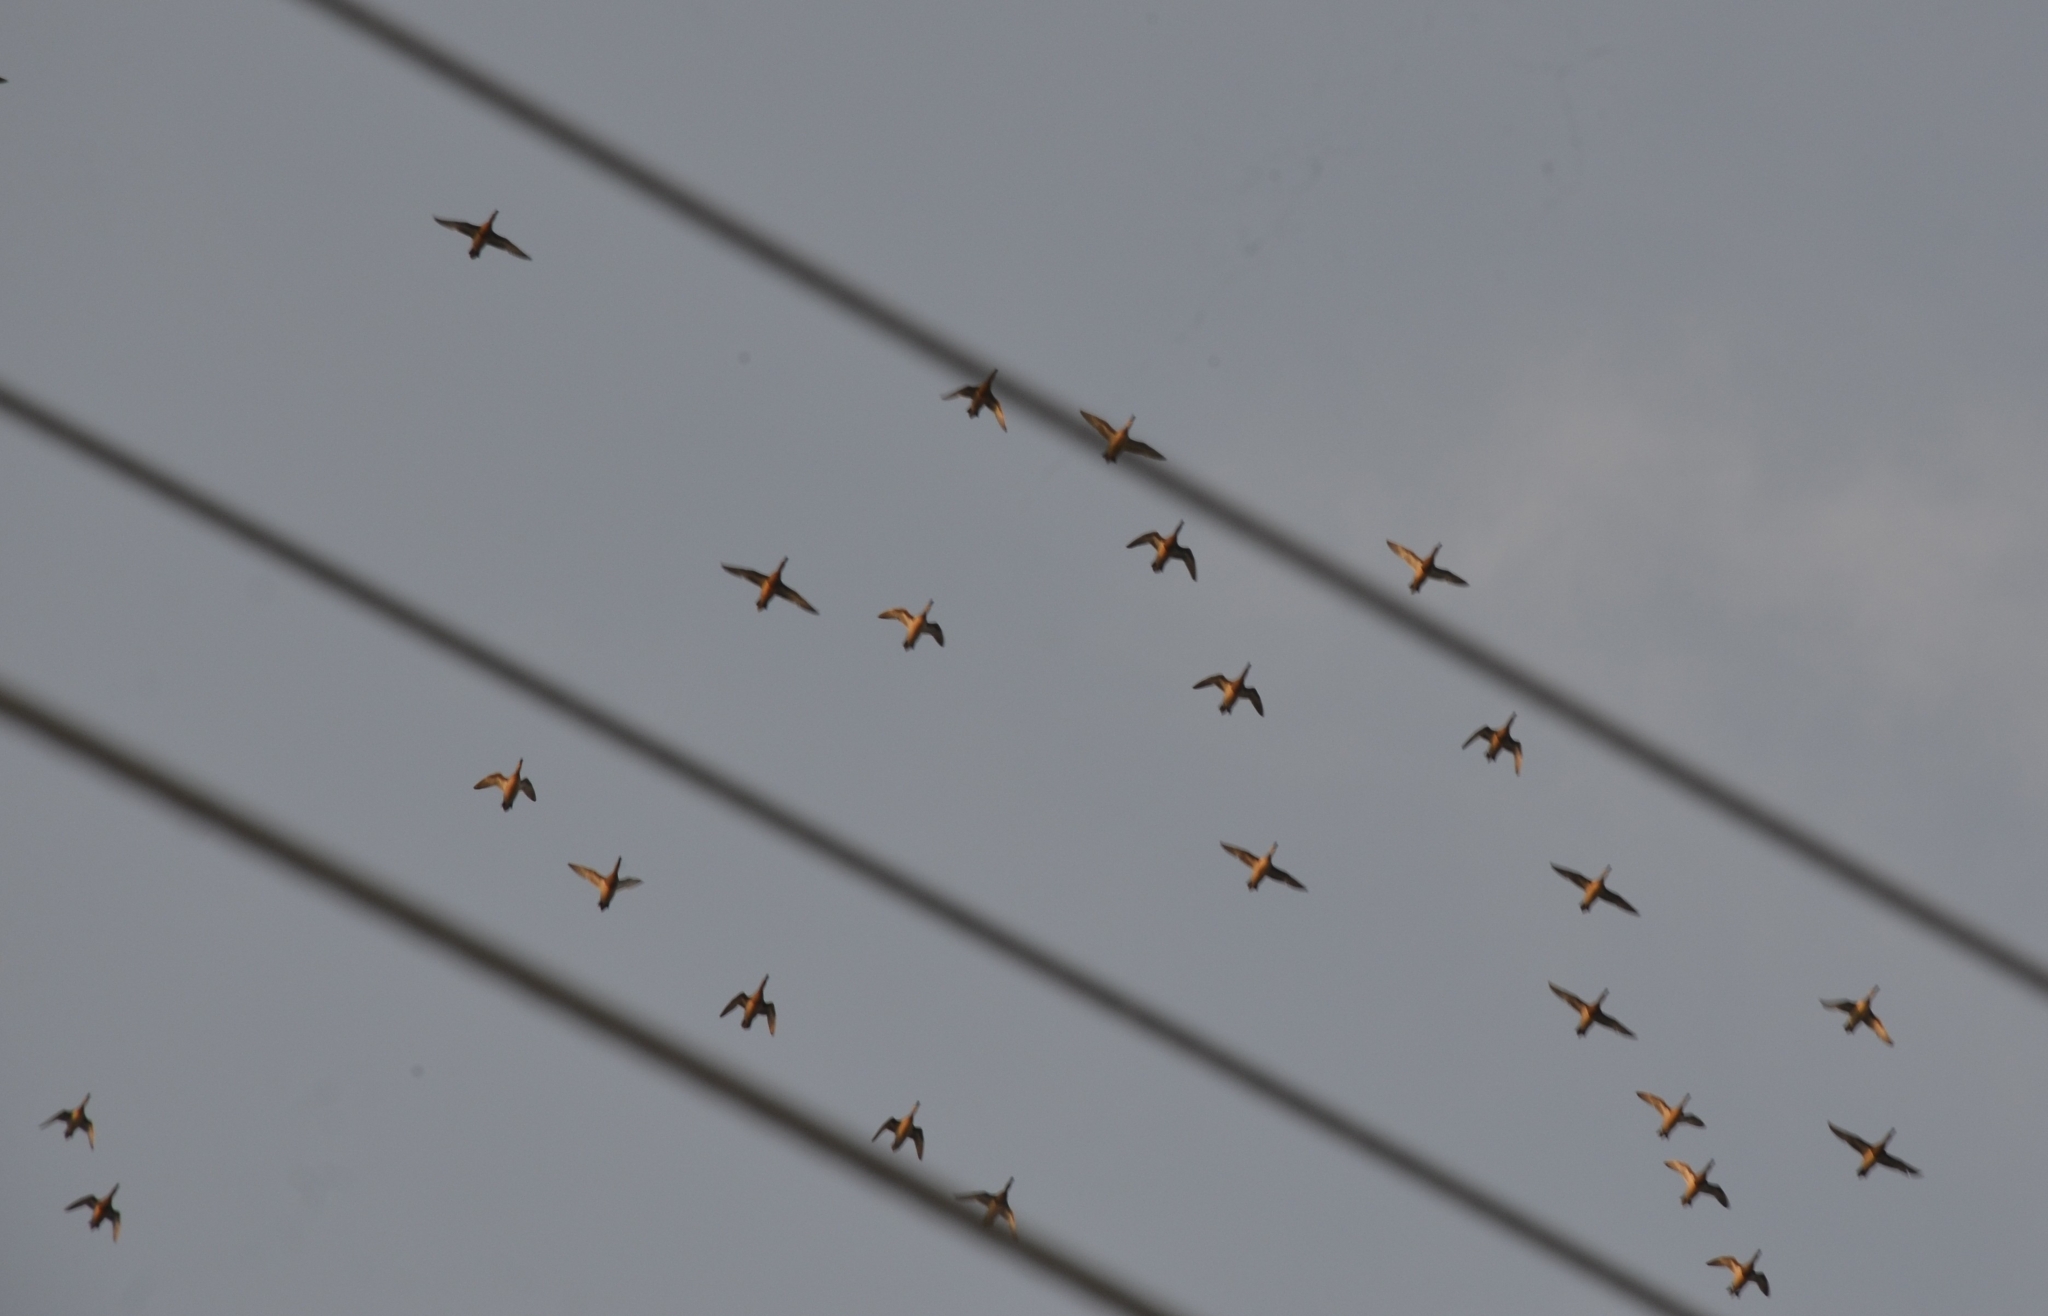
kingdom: Animalia
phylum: Chordata
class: Aves
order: Anseriformes
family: Anatidae
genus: Spatula
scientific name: Spatula querquedula
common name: Garganey
